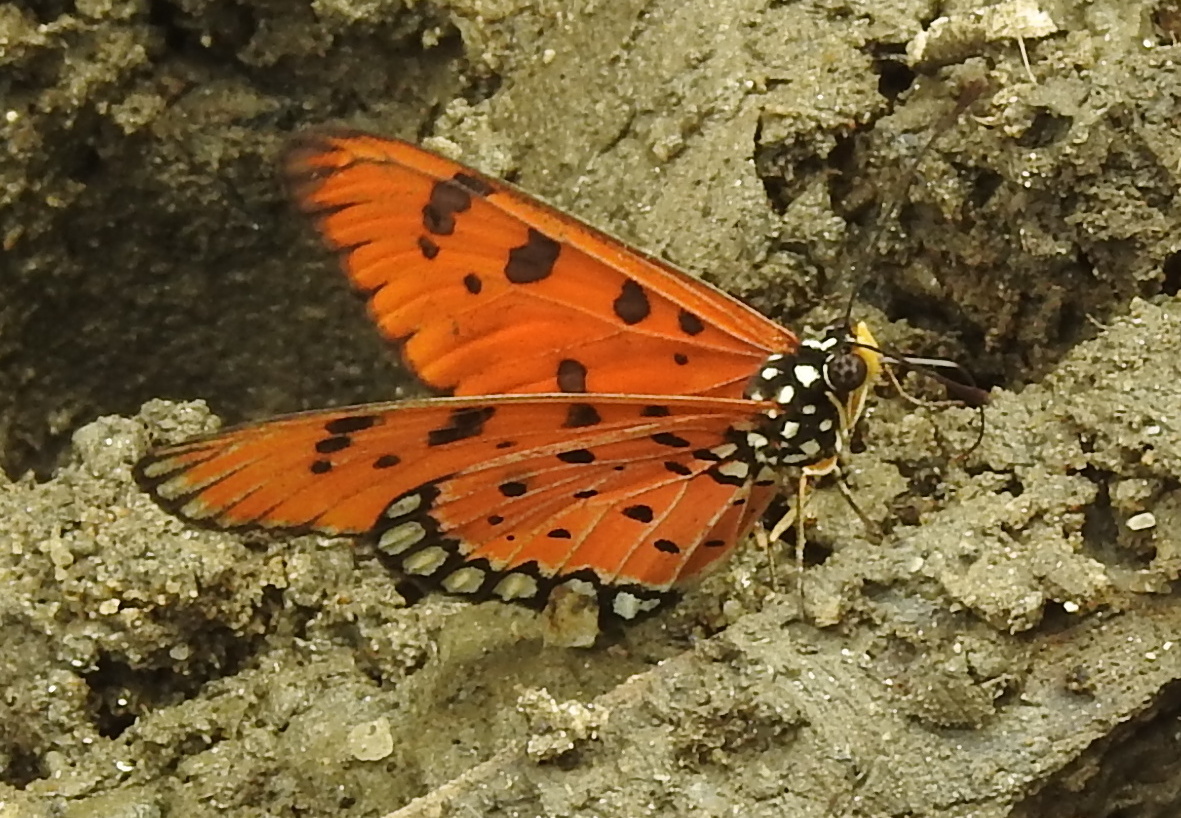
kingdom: Animalia
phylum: Arthropoda
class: Insecta
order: Lepidoptera
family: Nymphalidae
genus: Acraea
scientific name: Acraea terpsicore
